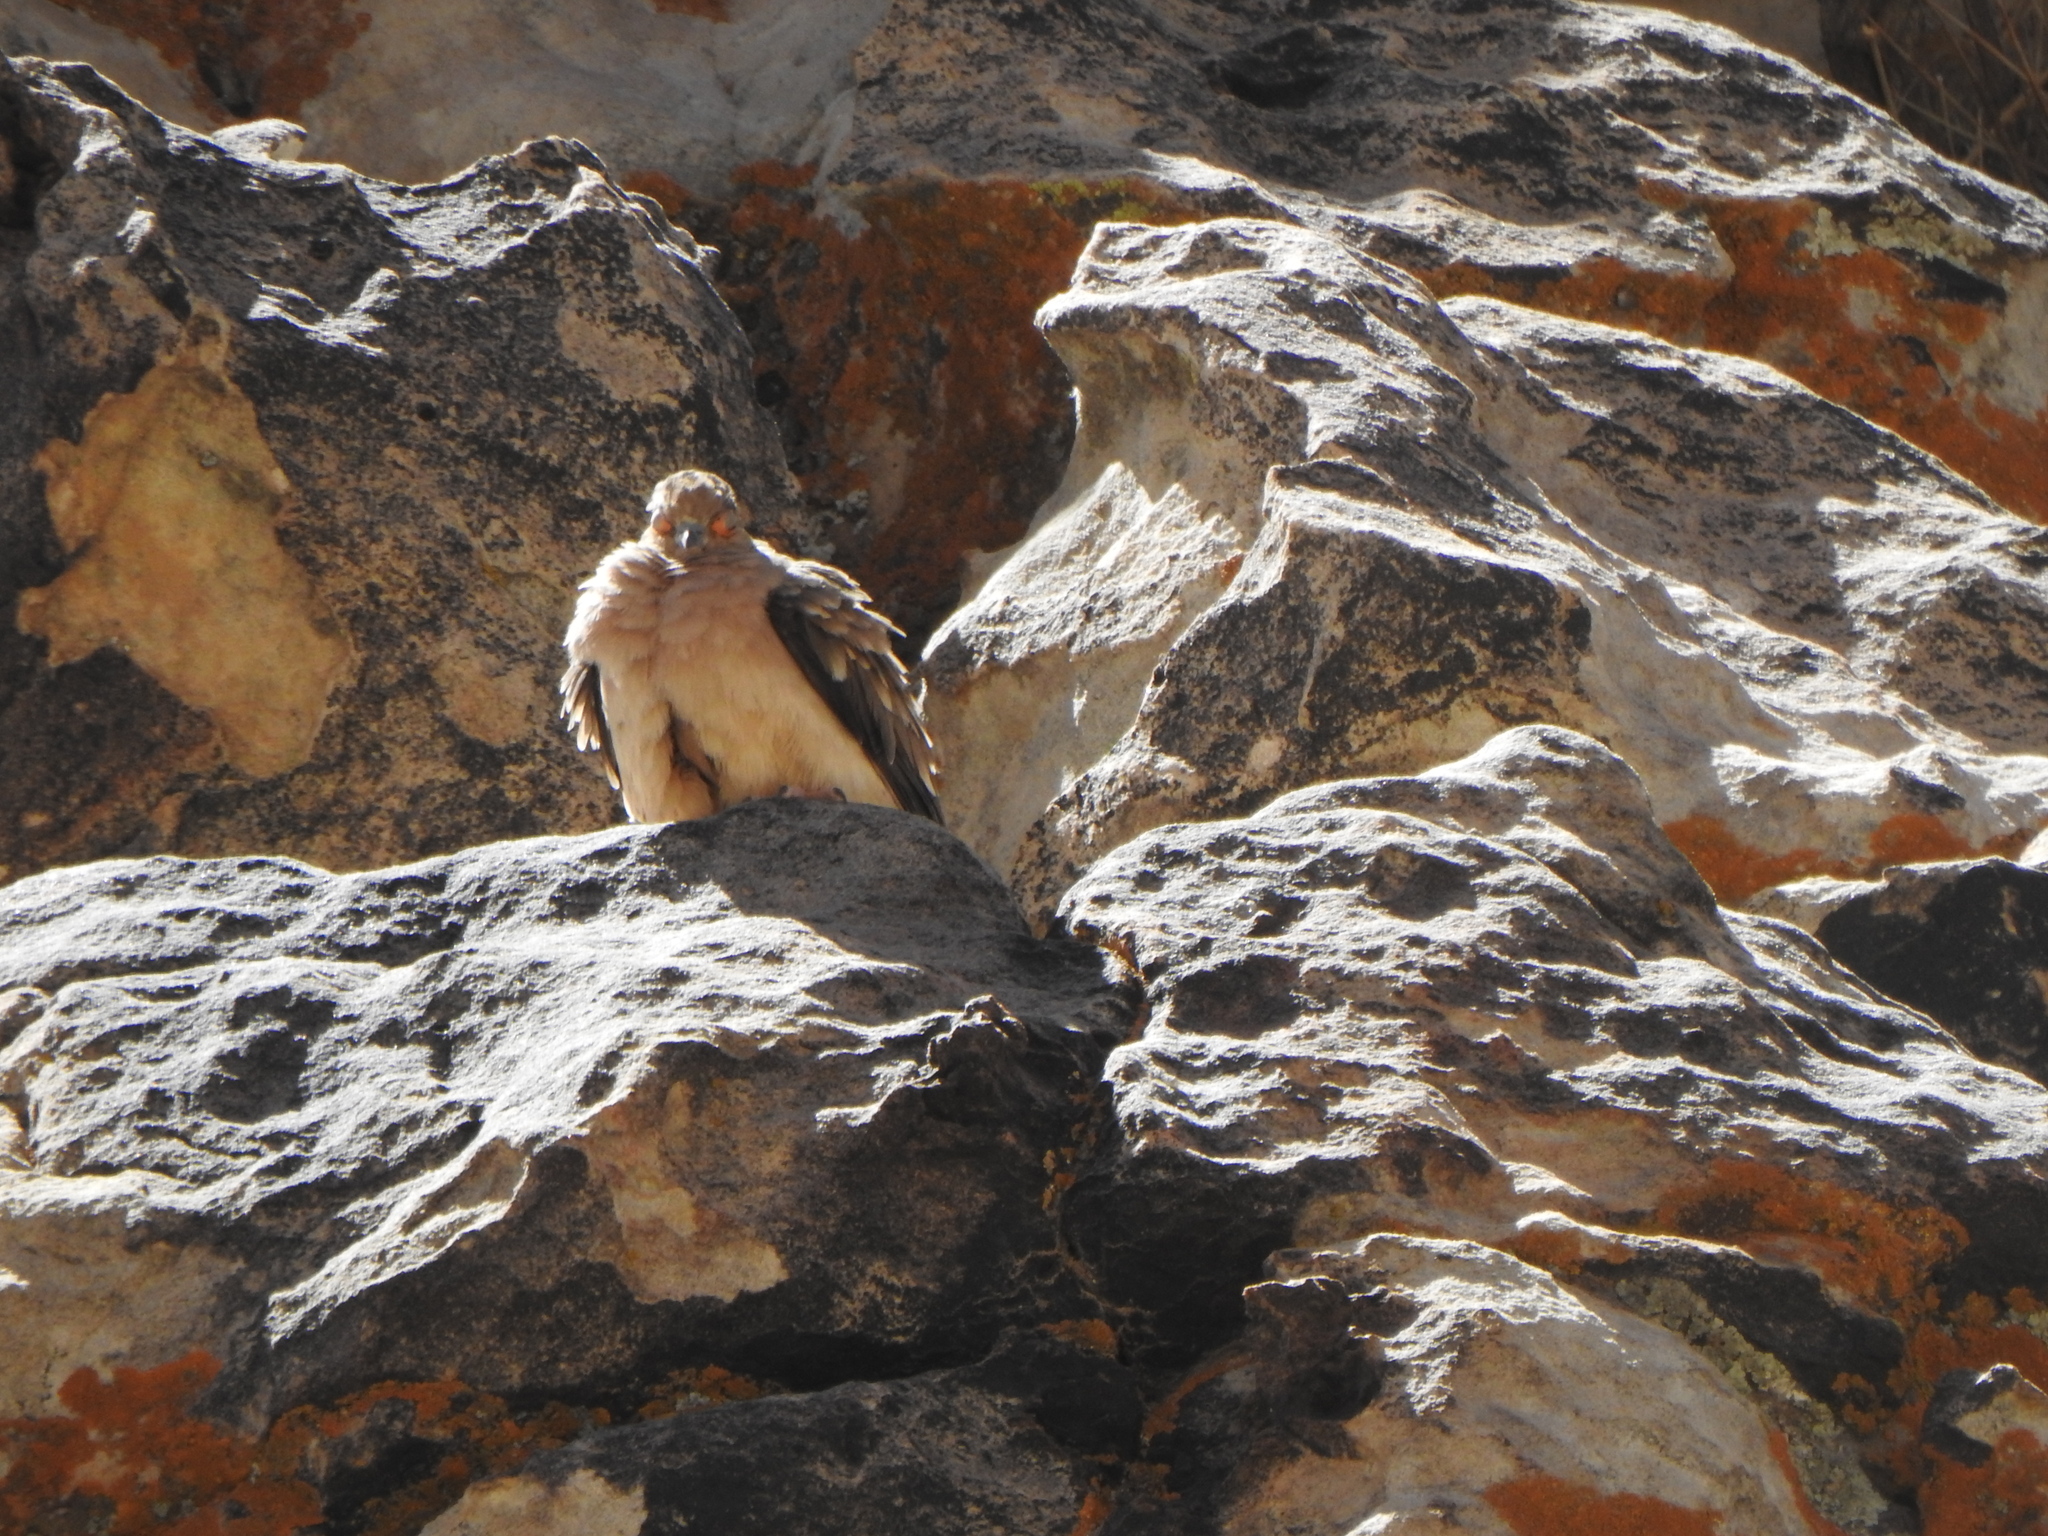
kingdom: Animalia
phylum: Chordata
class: Aves
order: Columbiformes
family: Columbidae
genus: Metriopelia
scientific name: Metriopelia ceciliae
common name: Bare-faced ground dove
